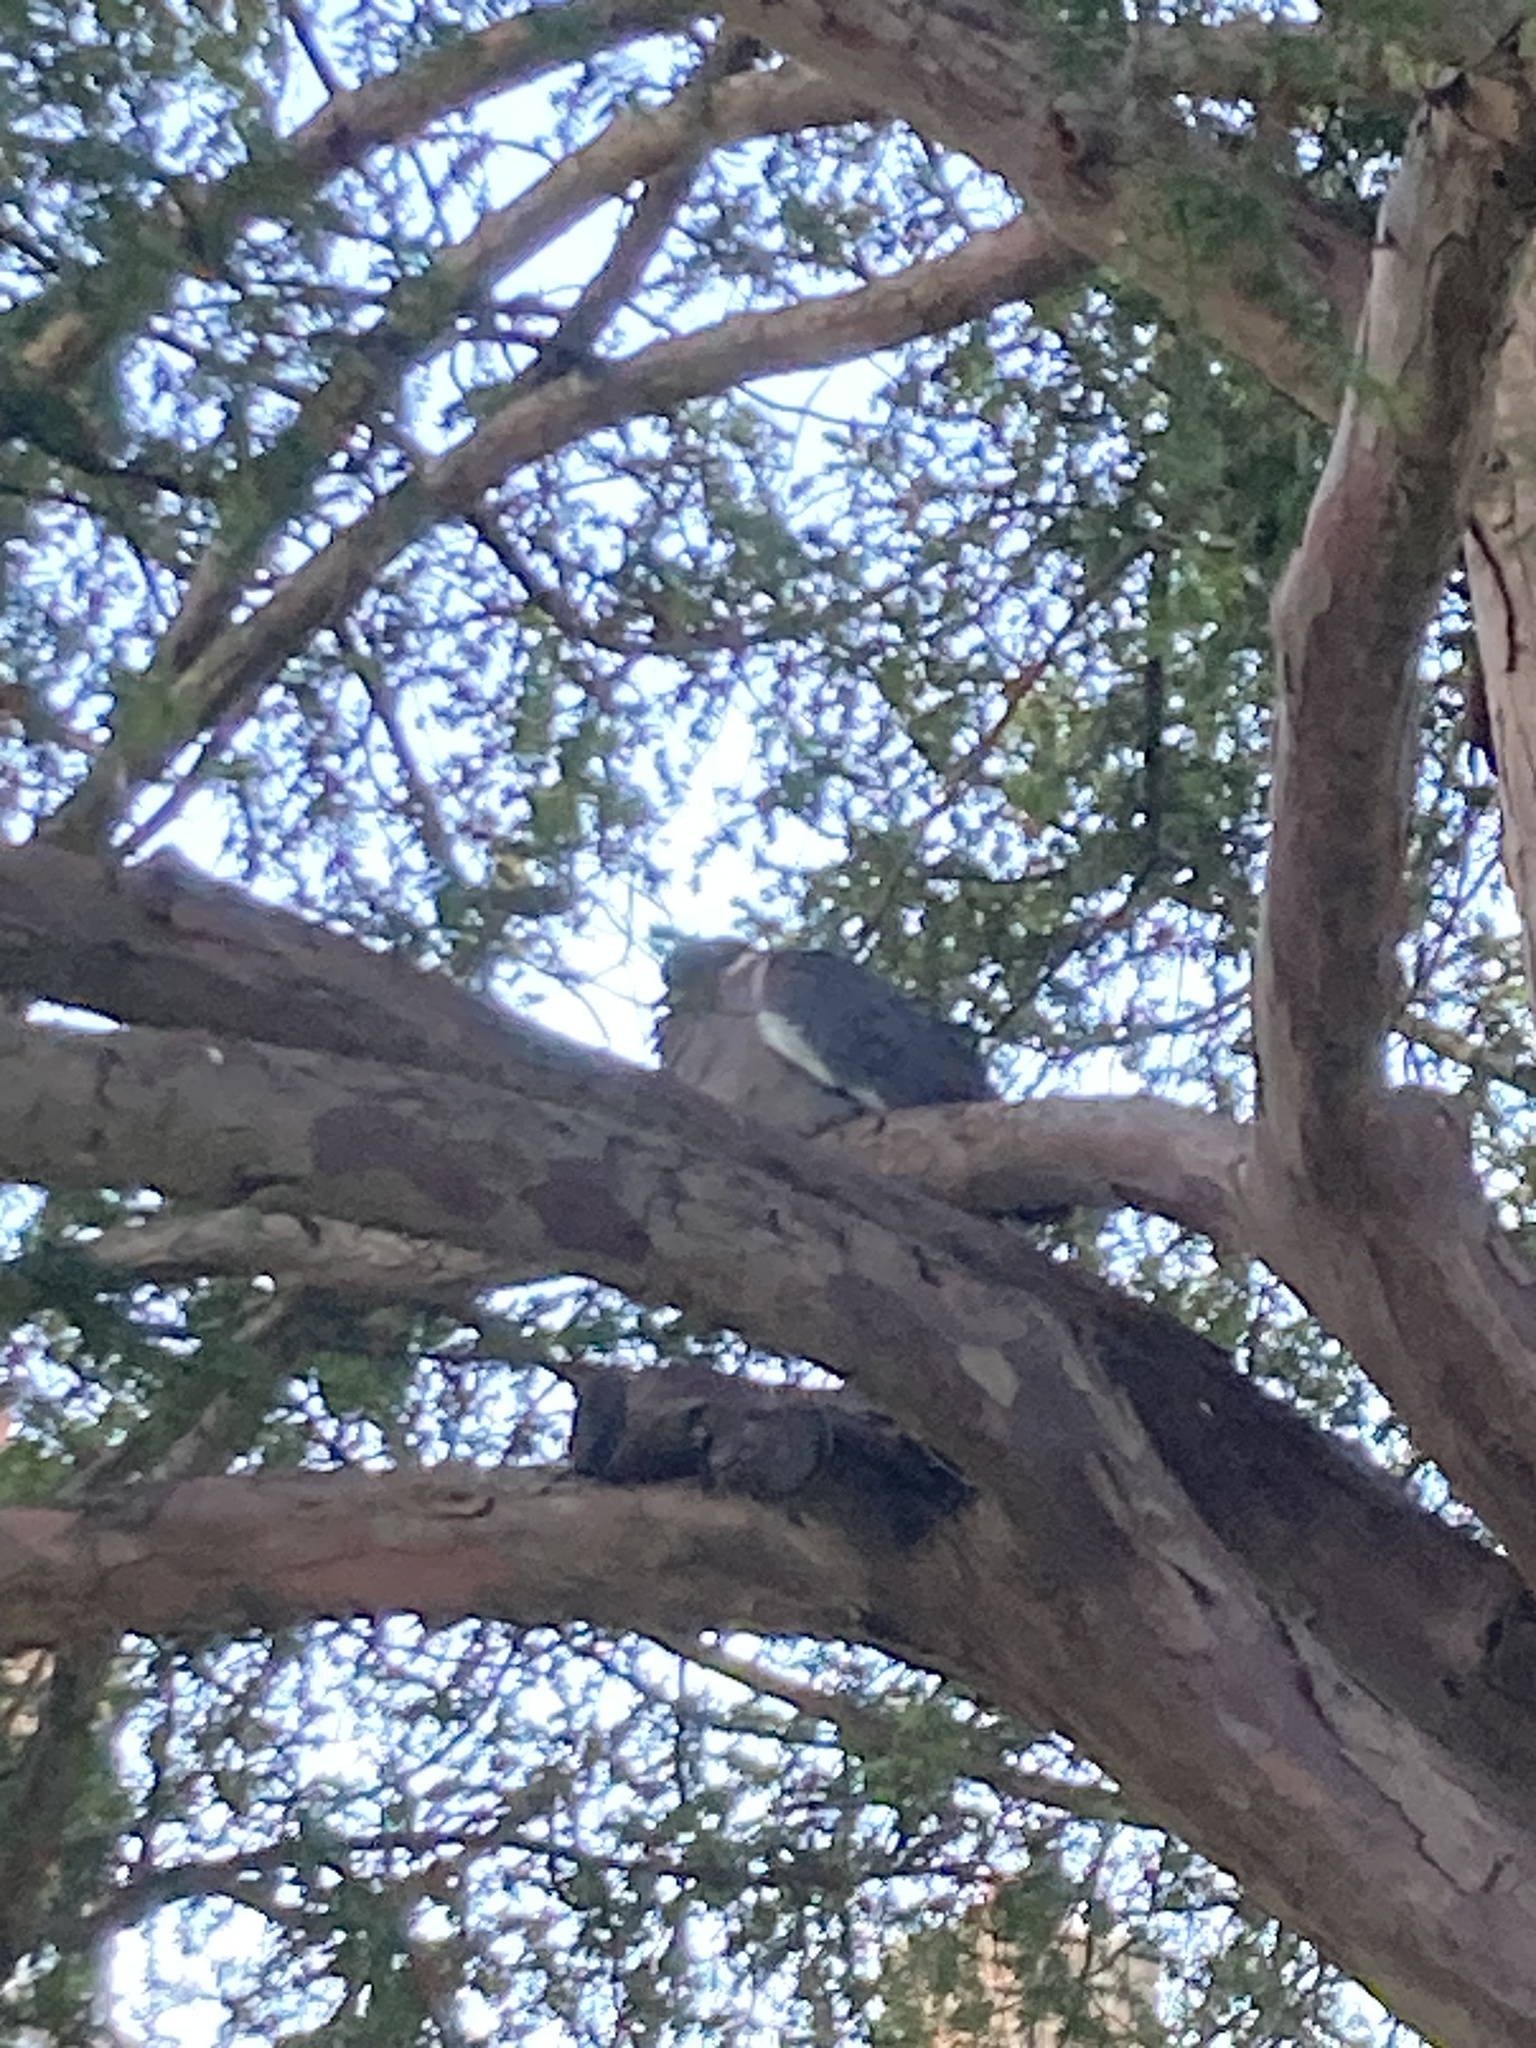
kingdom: Animalia
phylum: Chordata
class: Aves
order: Columbiformes
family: Columbidae
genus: Columba
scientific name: Columba palumbus
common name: Common wood pigeon
